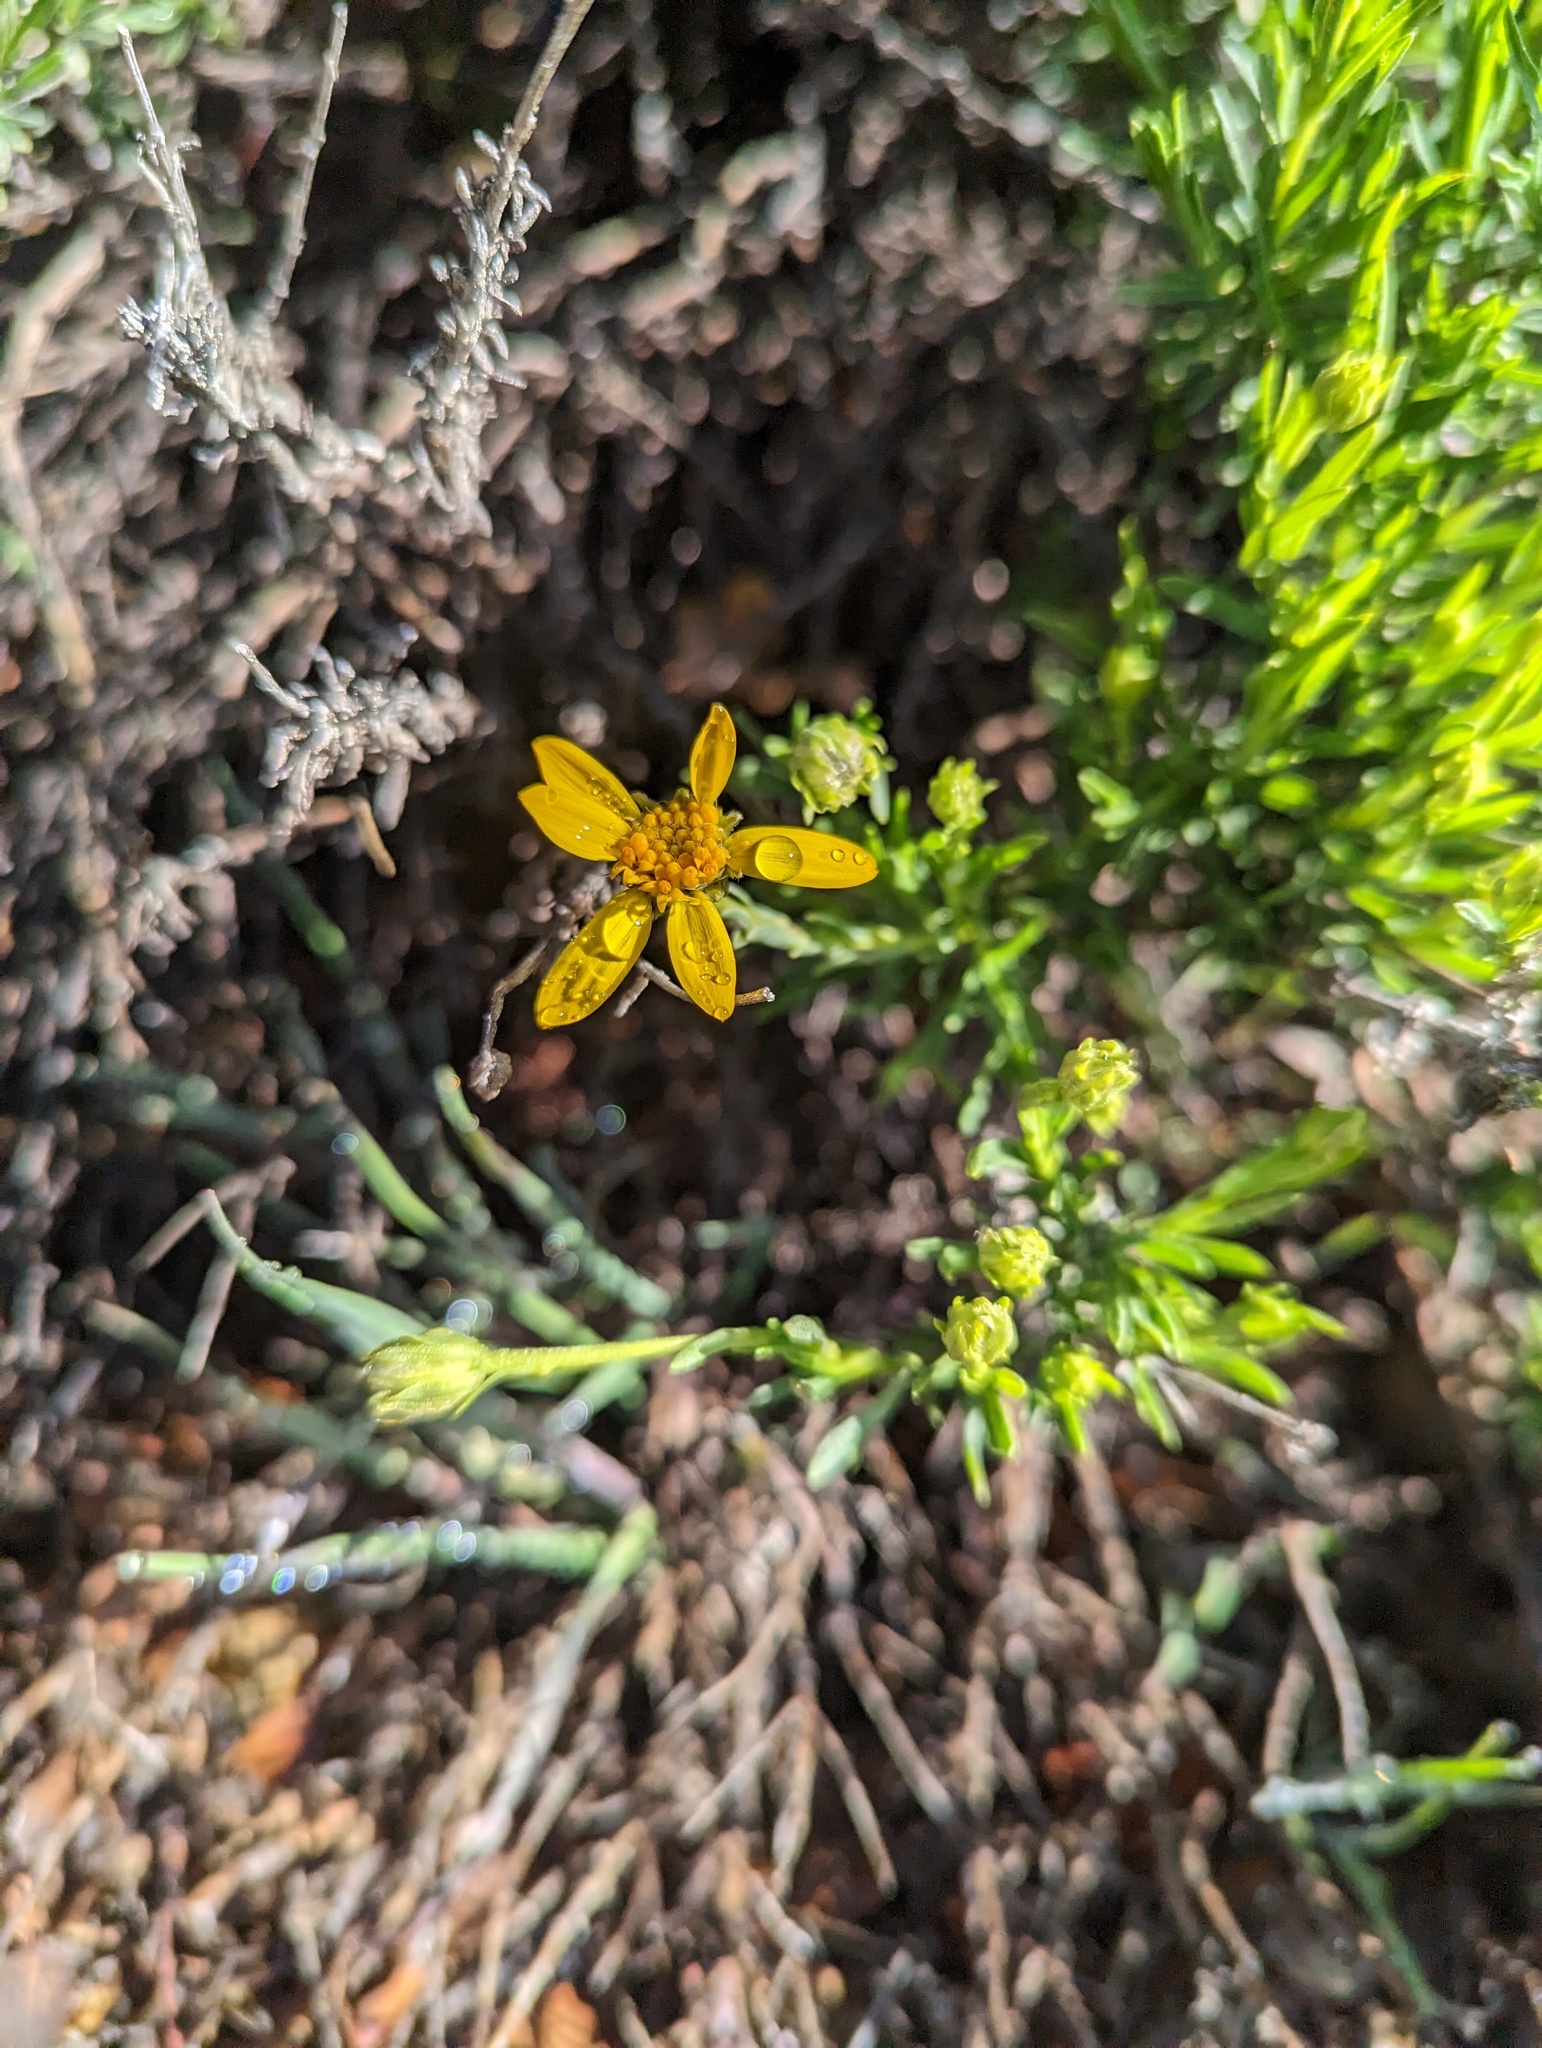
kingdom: Plantae
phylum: Tracheophyta
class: Magnoliopsida
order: Asterales
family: Asteraceae
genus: Ericameria
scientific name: Ericameria linearifolia
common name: Interior goldenbush
